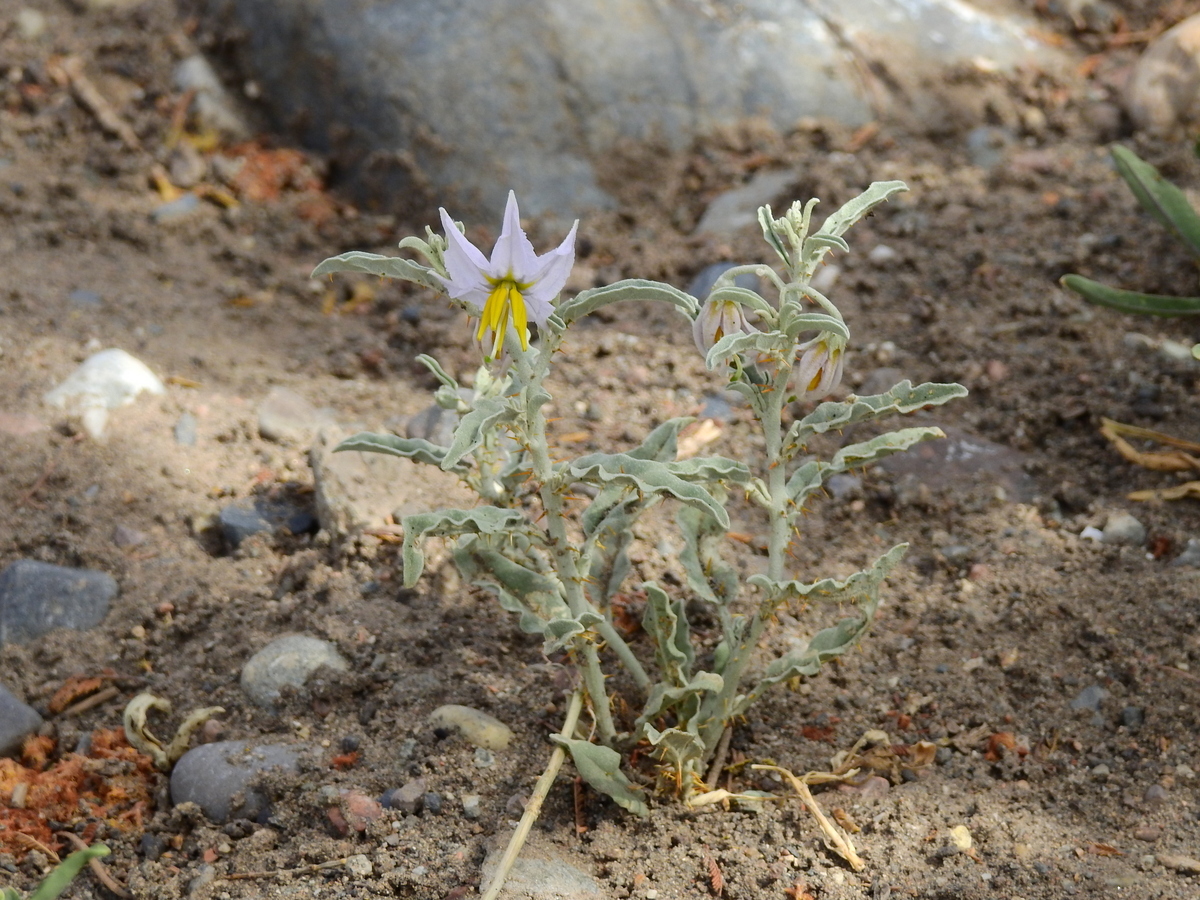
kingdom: Plantae
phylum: Tracheophyta
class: Magnoliopsida
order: Solanales
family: Solanaceae
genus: Solanum
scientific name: Solanum elaeagnifolium
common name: Silverleaf nightshade
